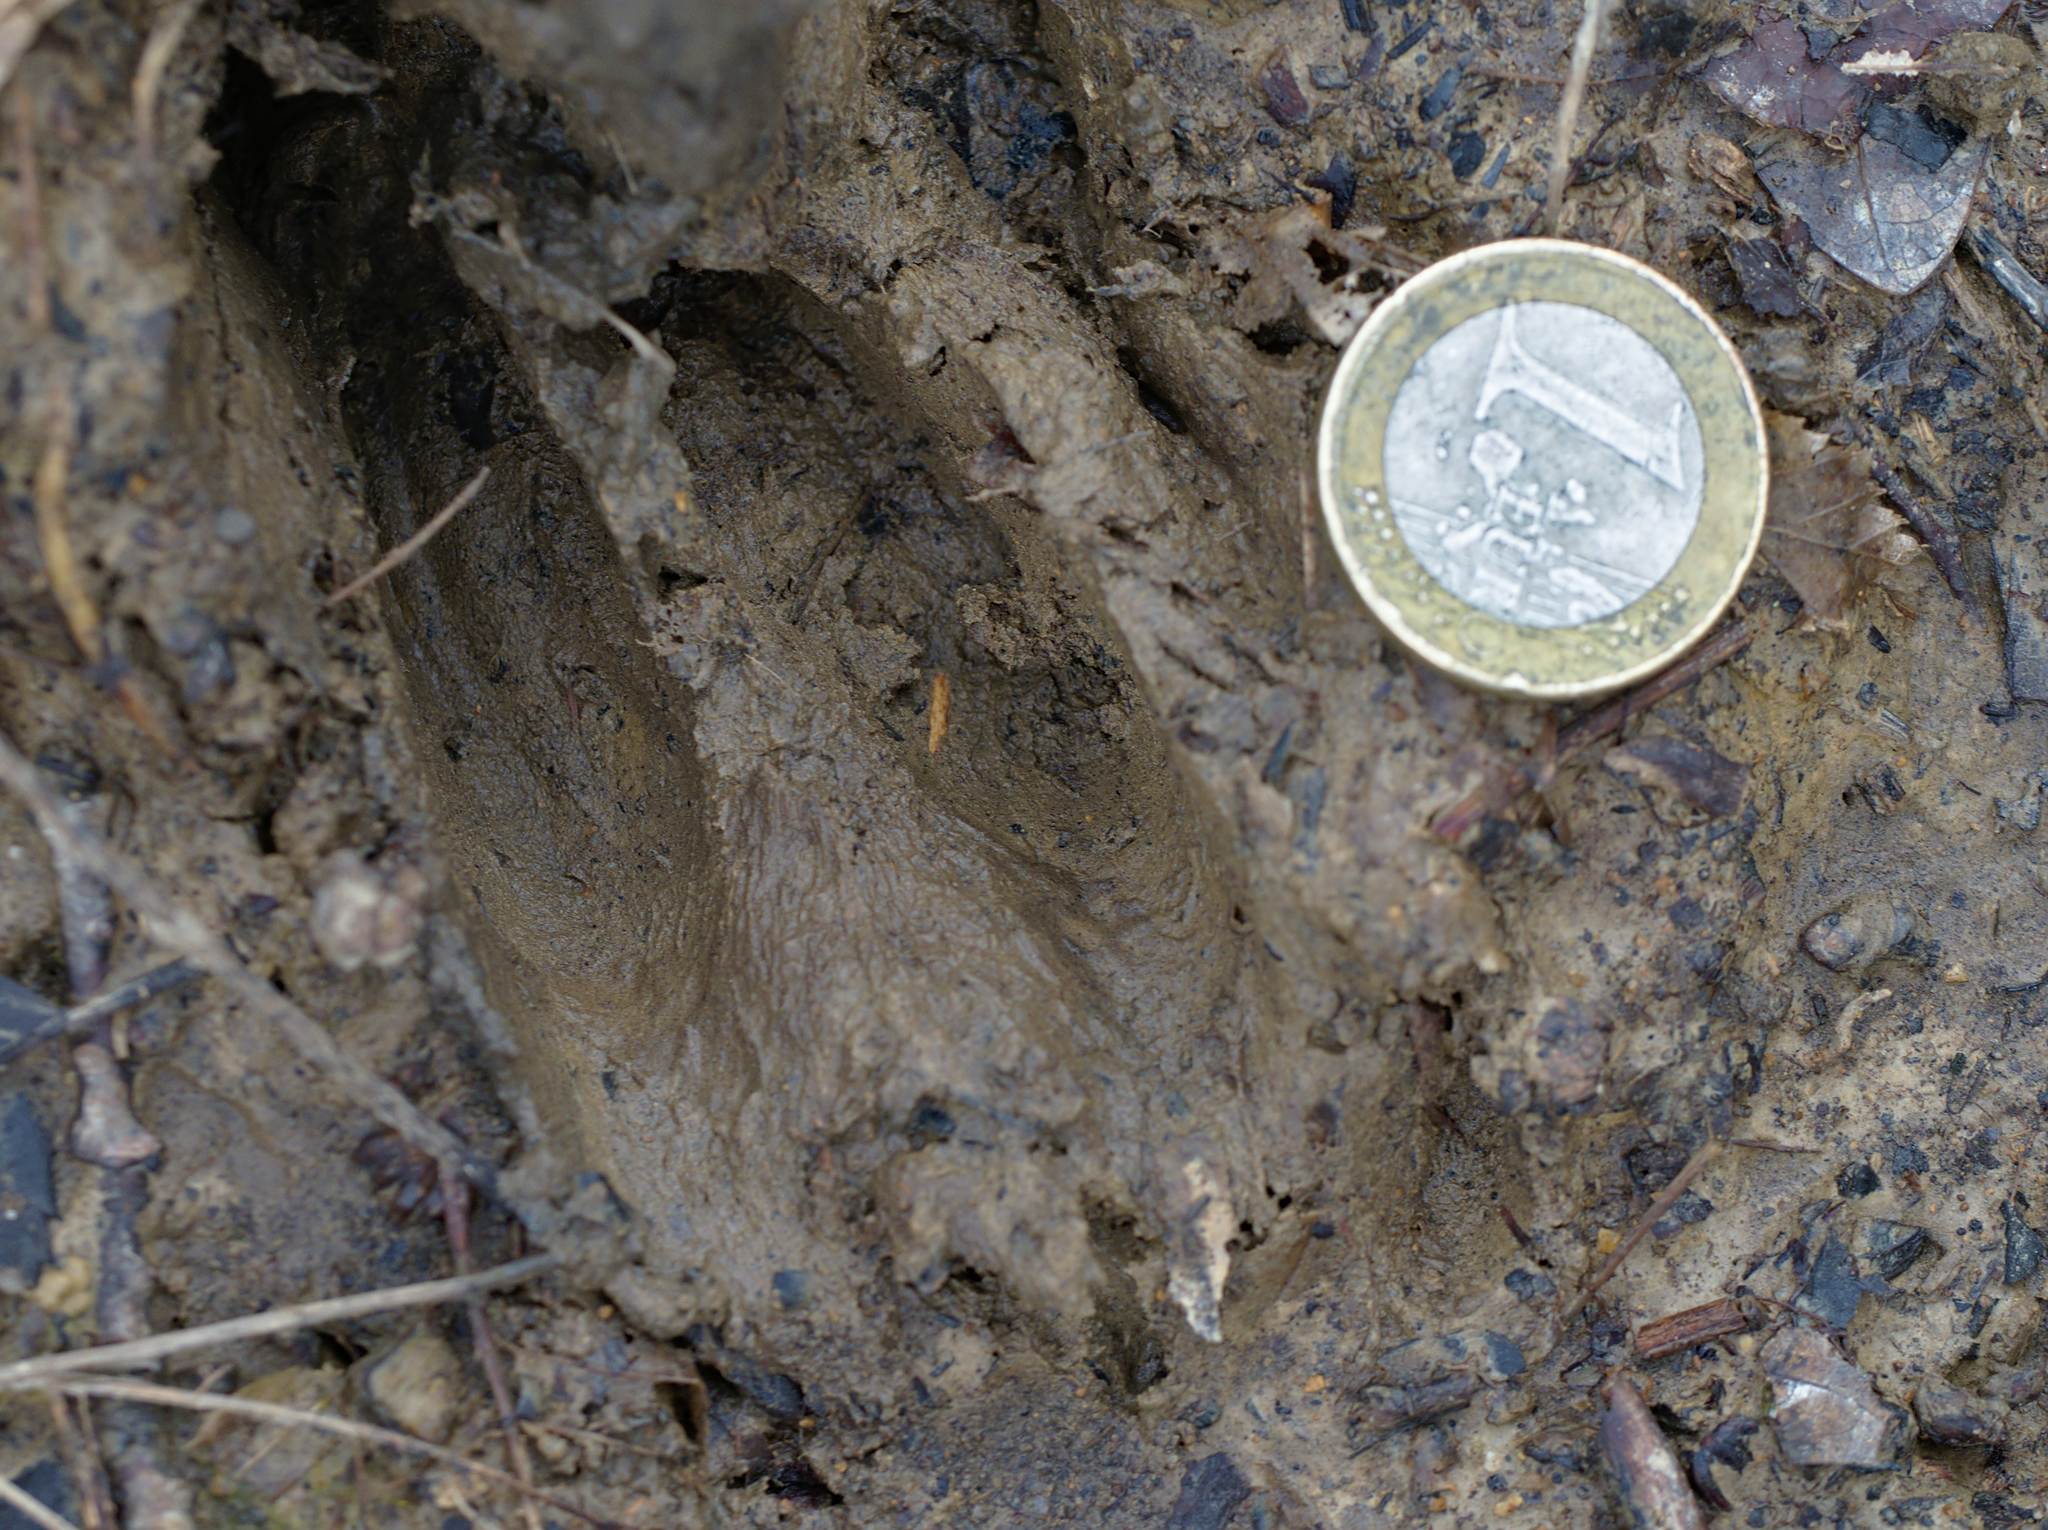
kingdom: Animalia
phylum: Chordata
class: Mammalia
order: Artiodactyla
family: Cervidae
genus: Capreolus
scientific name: Capreolus capreolus
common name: Western roe deer
